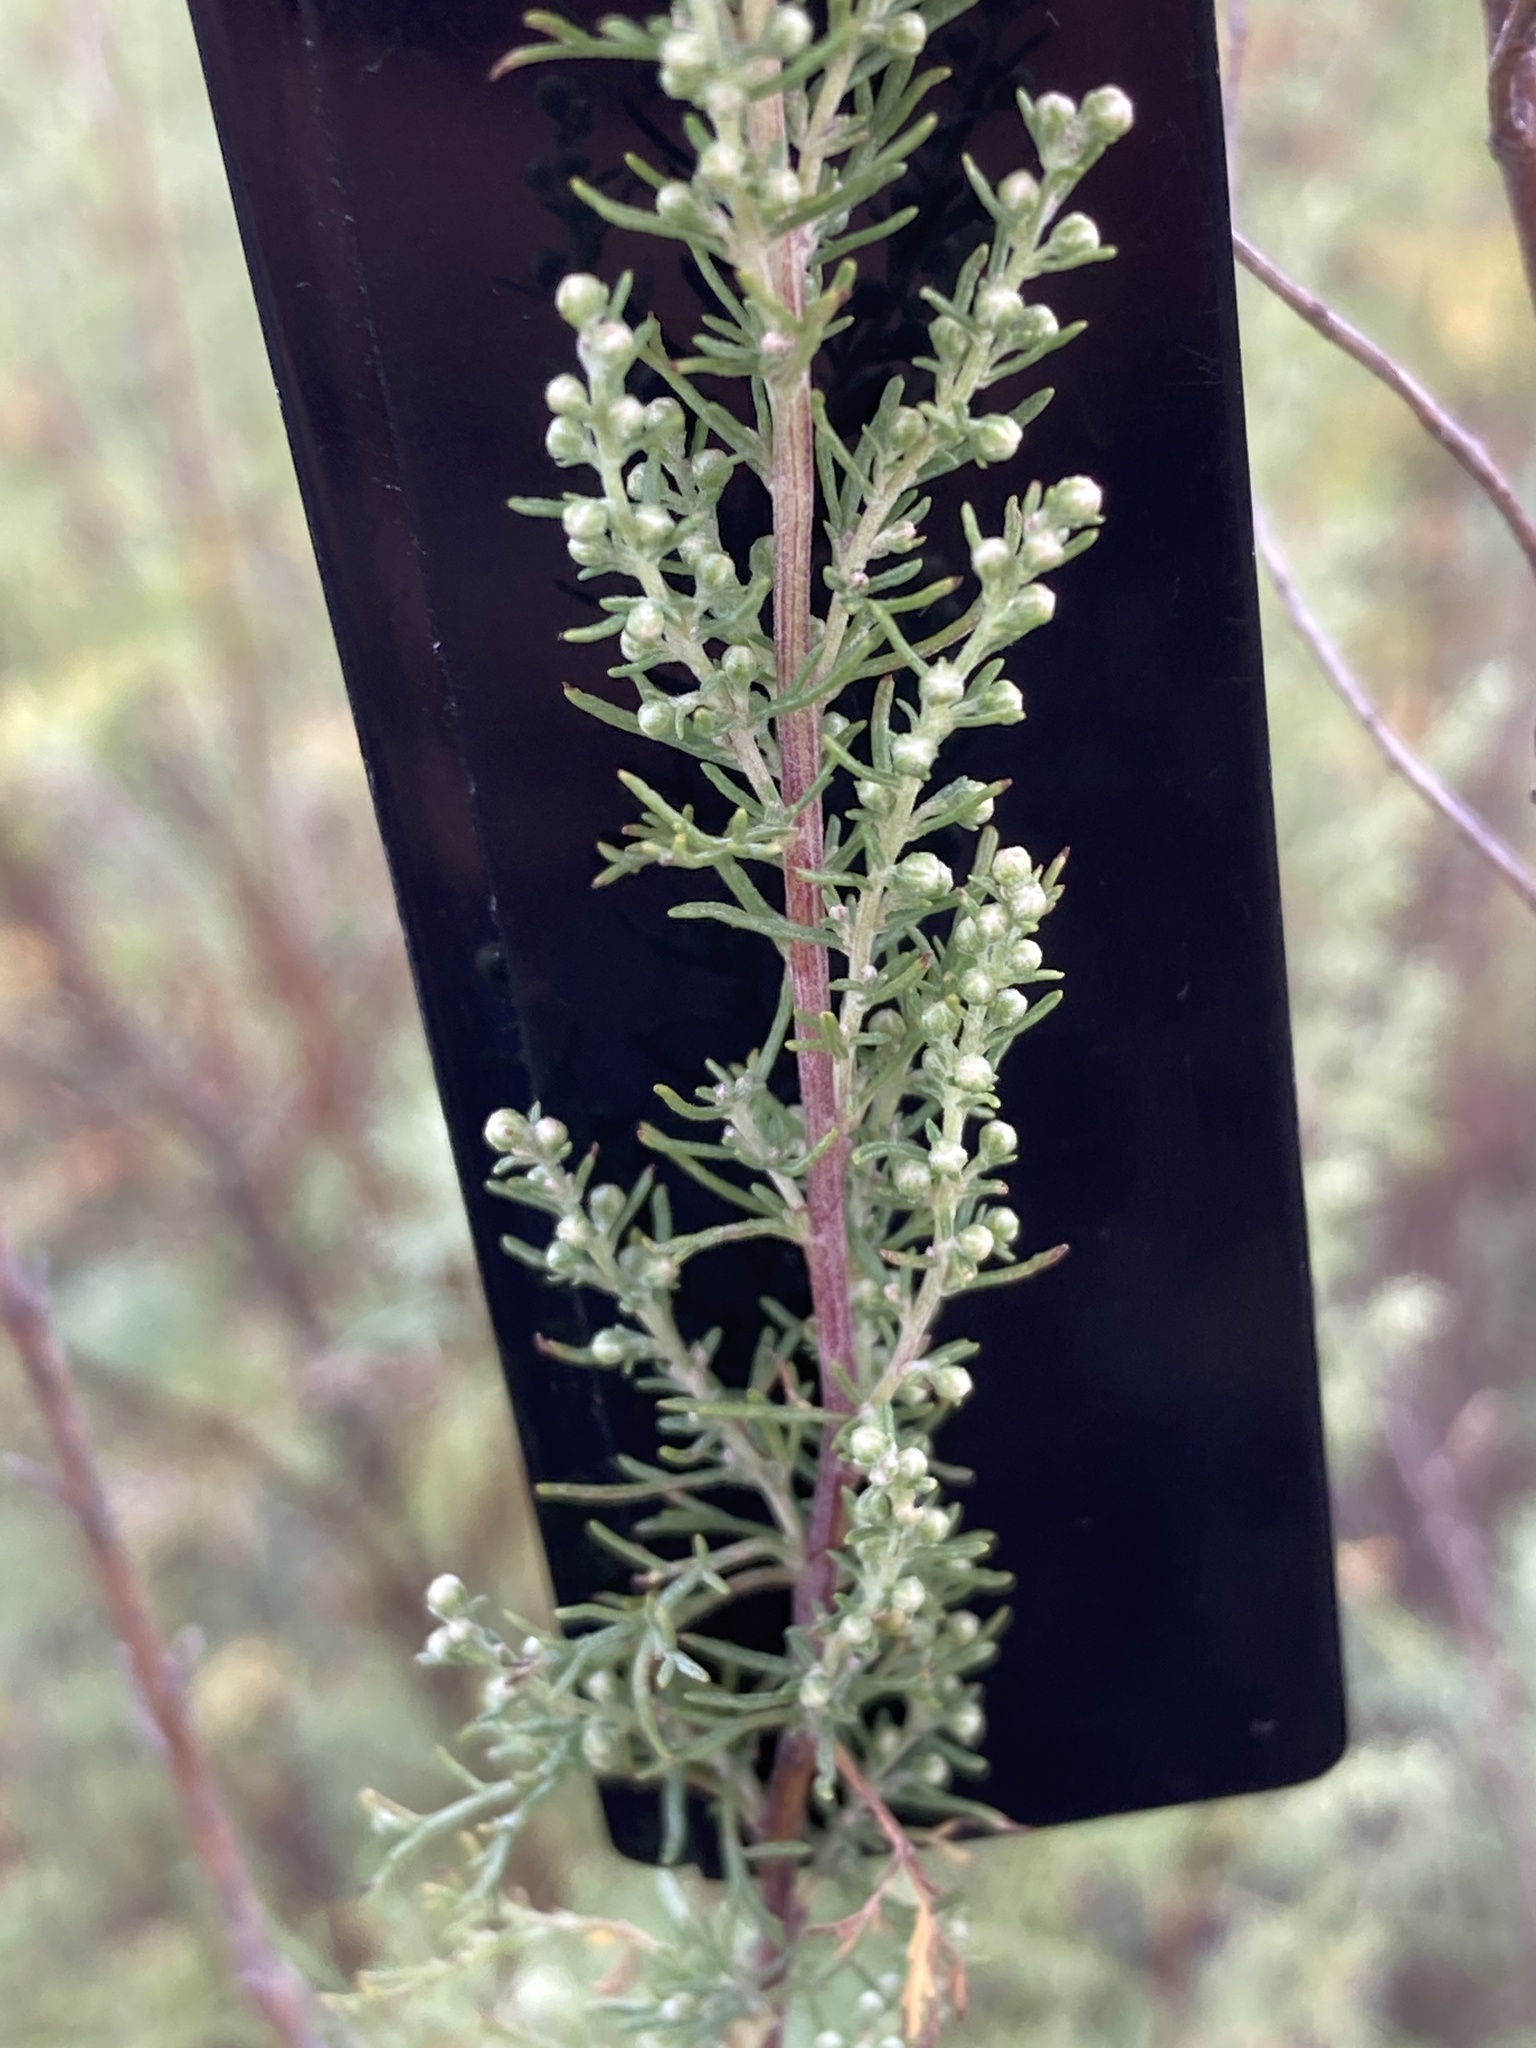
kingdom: Plantae
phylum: Tracheophyta
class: Magnoliopsida
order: Asterales
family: Asteraceae
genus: Artemisia
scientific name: Artemisia abrotanum
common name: Southernwood
